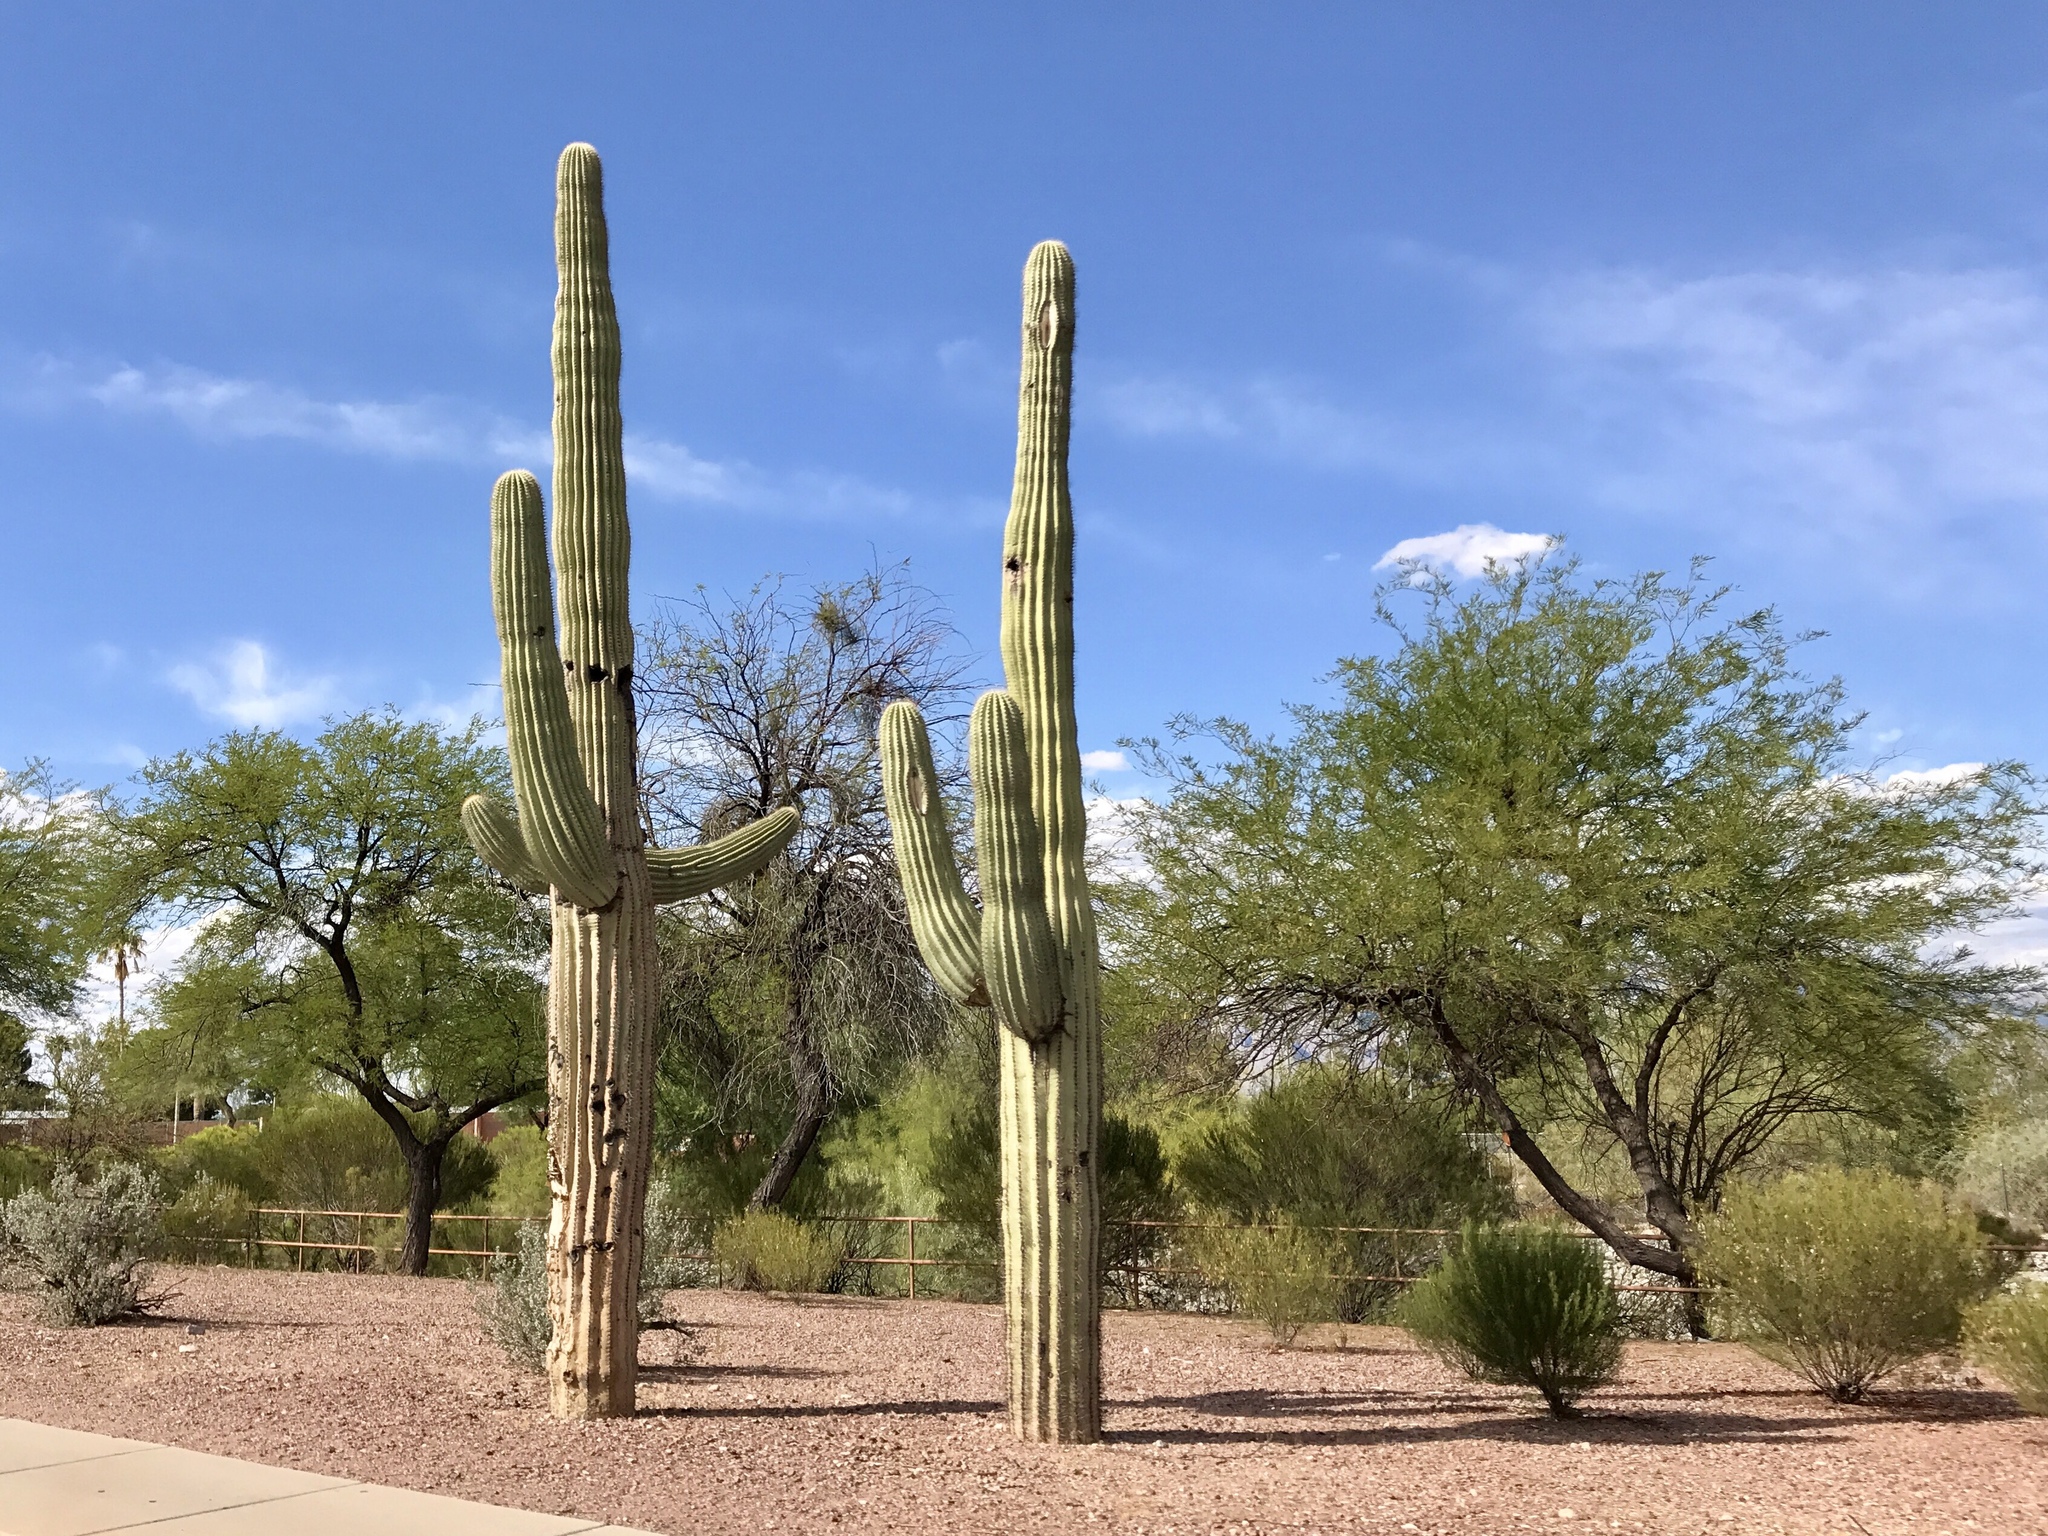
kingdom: Plantae
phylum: Tracheophyta
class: Magnoliopsida
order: Caryophyllales
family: Cactaceae
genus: Carnegiea
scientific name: Carnegiea gigantea
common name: Saguaro
